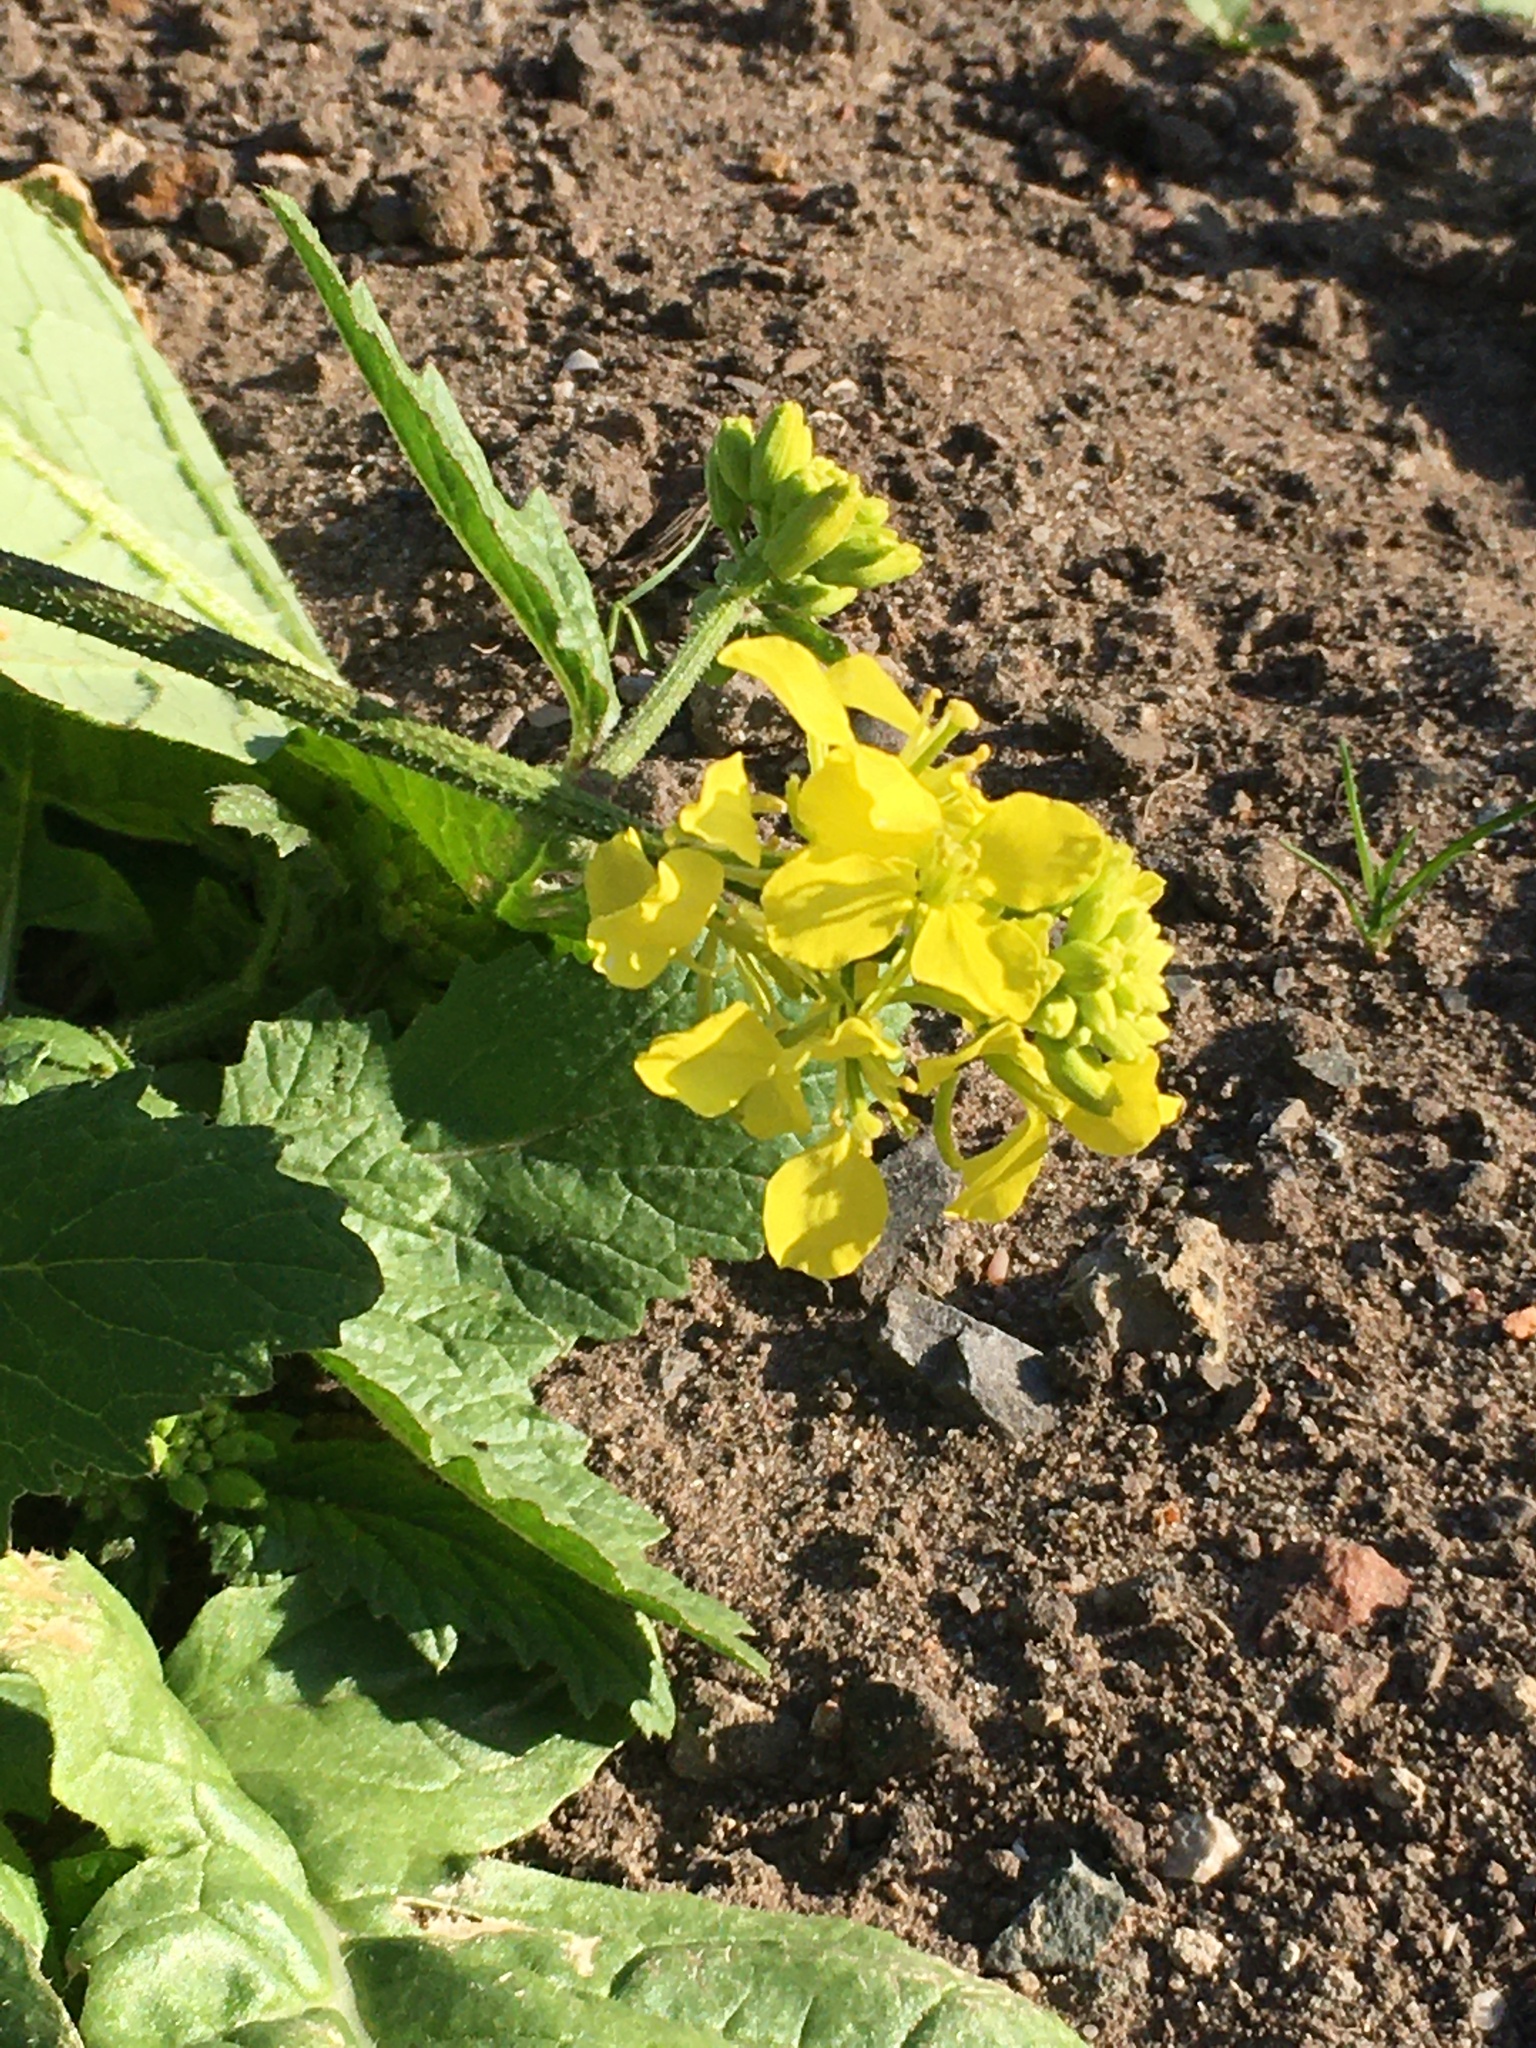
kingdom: Plantae
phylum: Tracheophyta
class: Magnoliopsida
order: Brassicales
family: Brassicaceae
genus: Sinapis
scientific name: Sinapis arvensis
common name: Charlock
